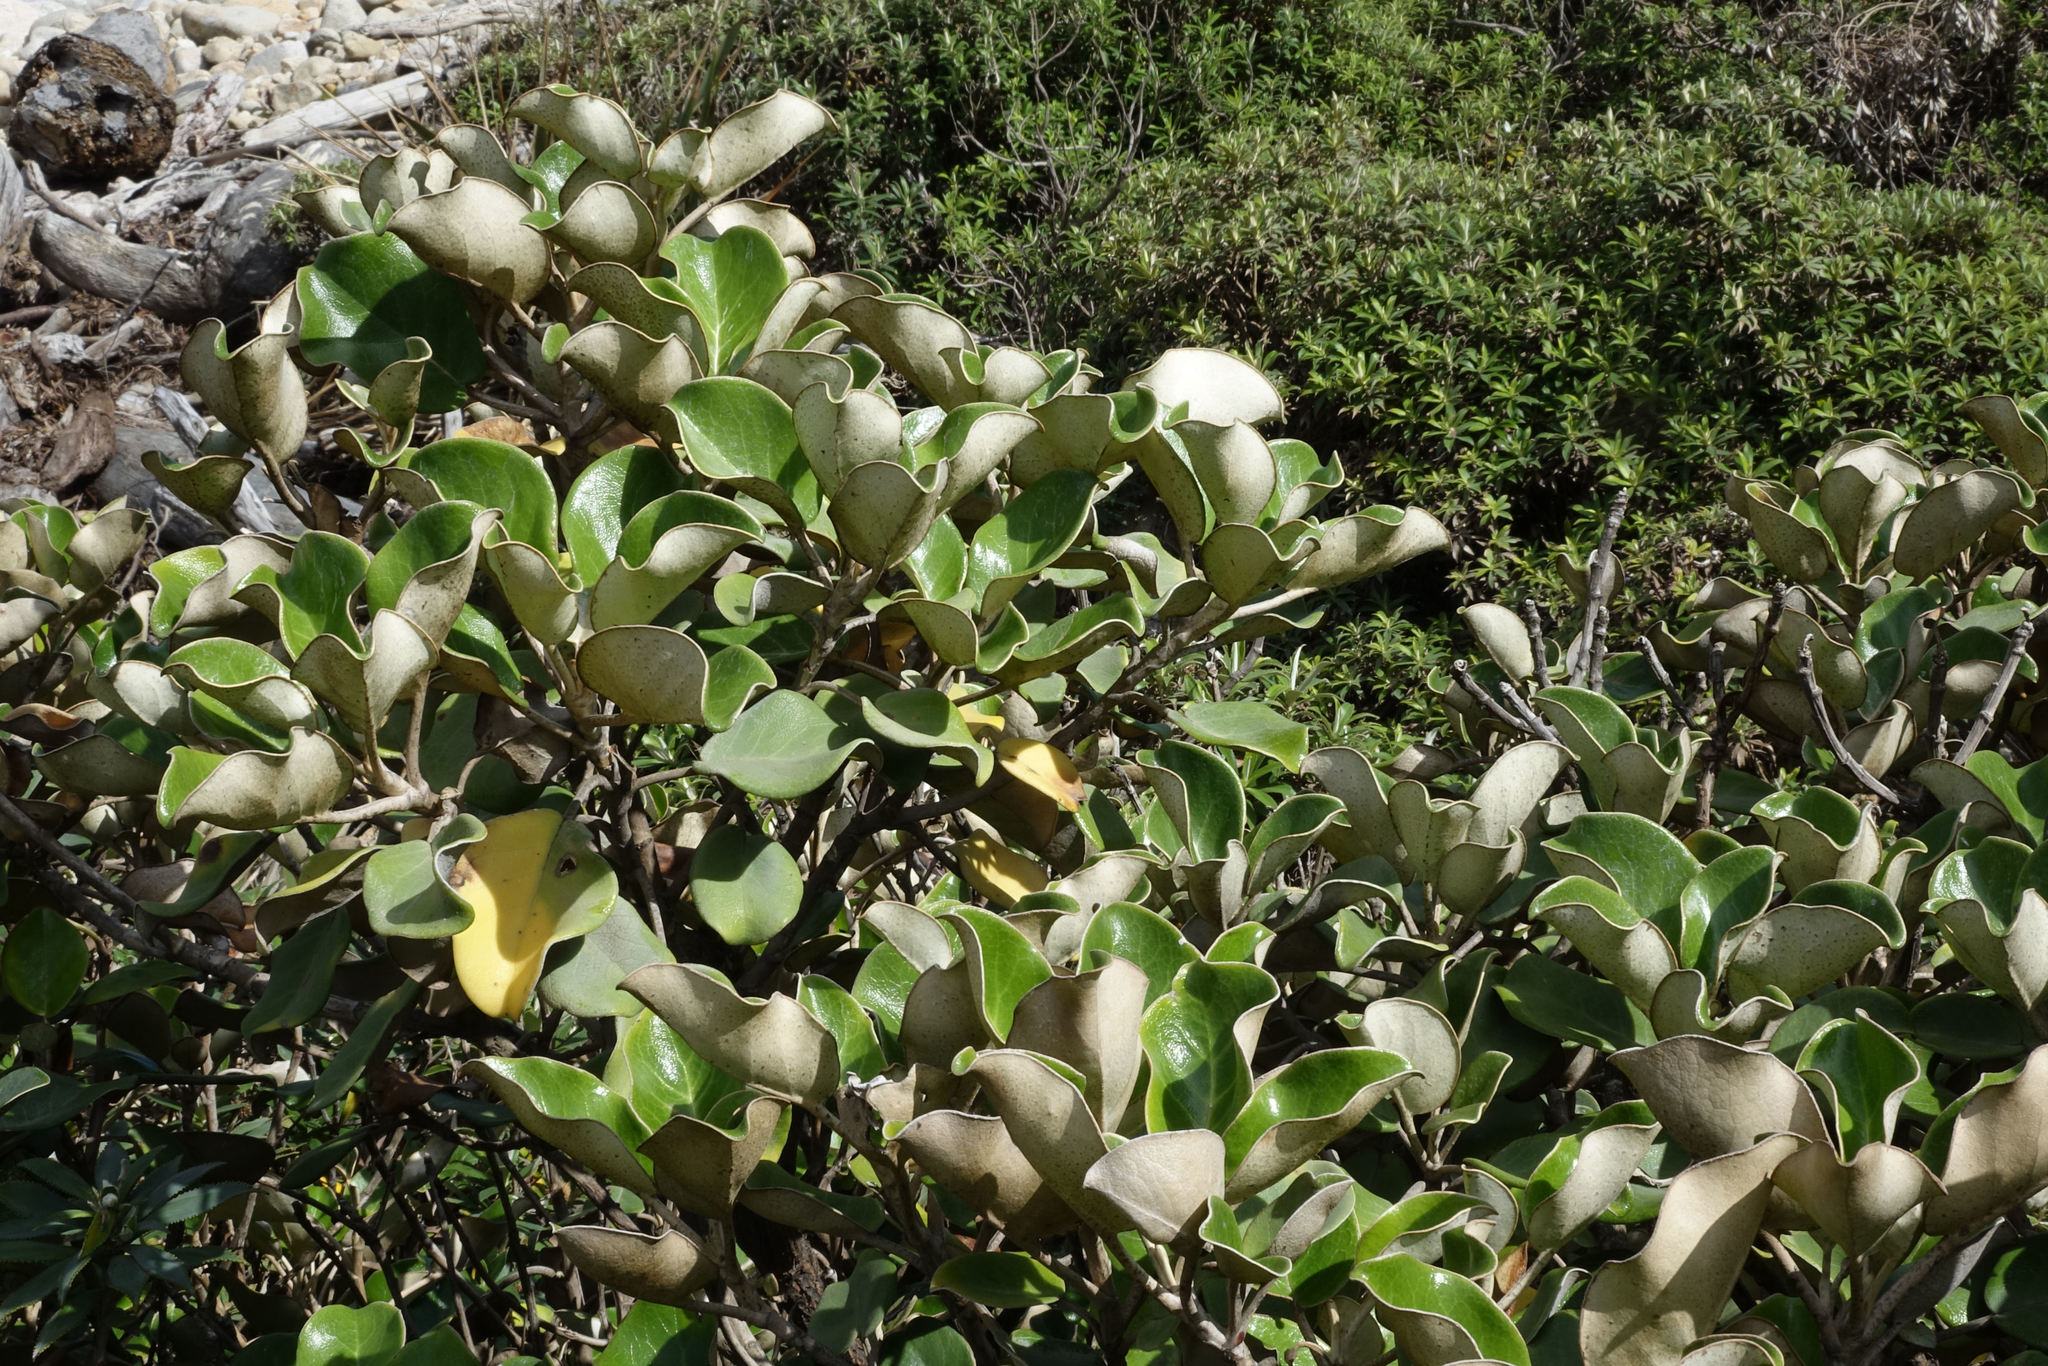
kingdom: Plantae
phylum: Tracheophyta
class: Magnoliopsida
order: Asterales
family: Asteraceae
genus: Brachyglottis
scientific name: Brachyglottis rotundifolia
